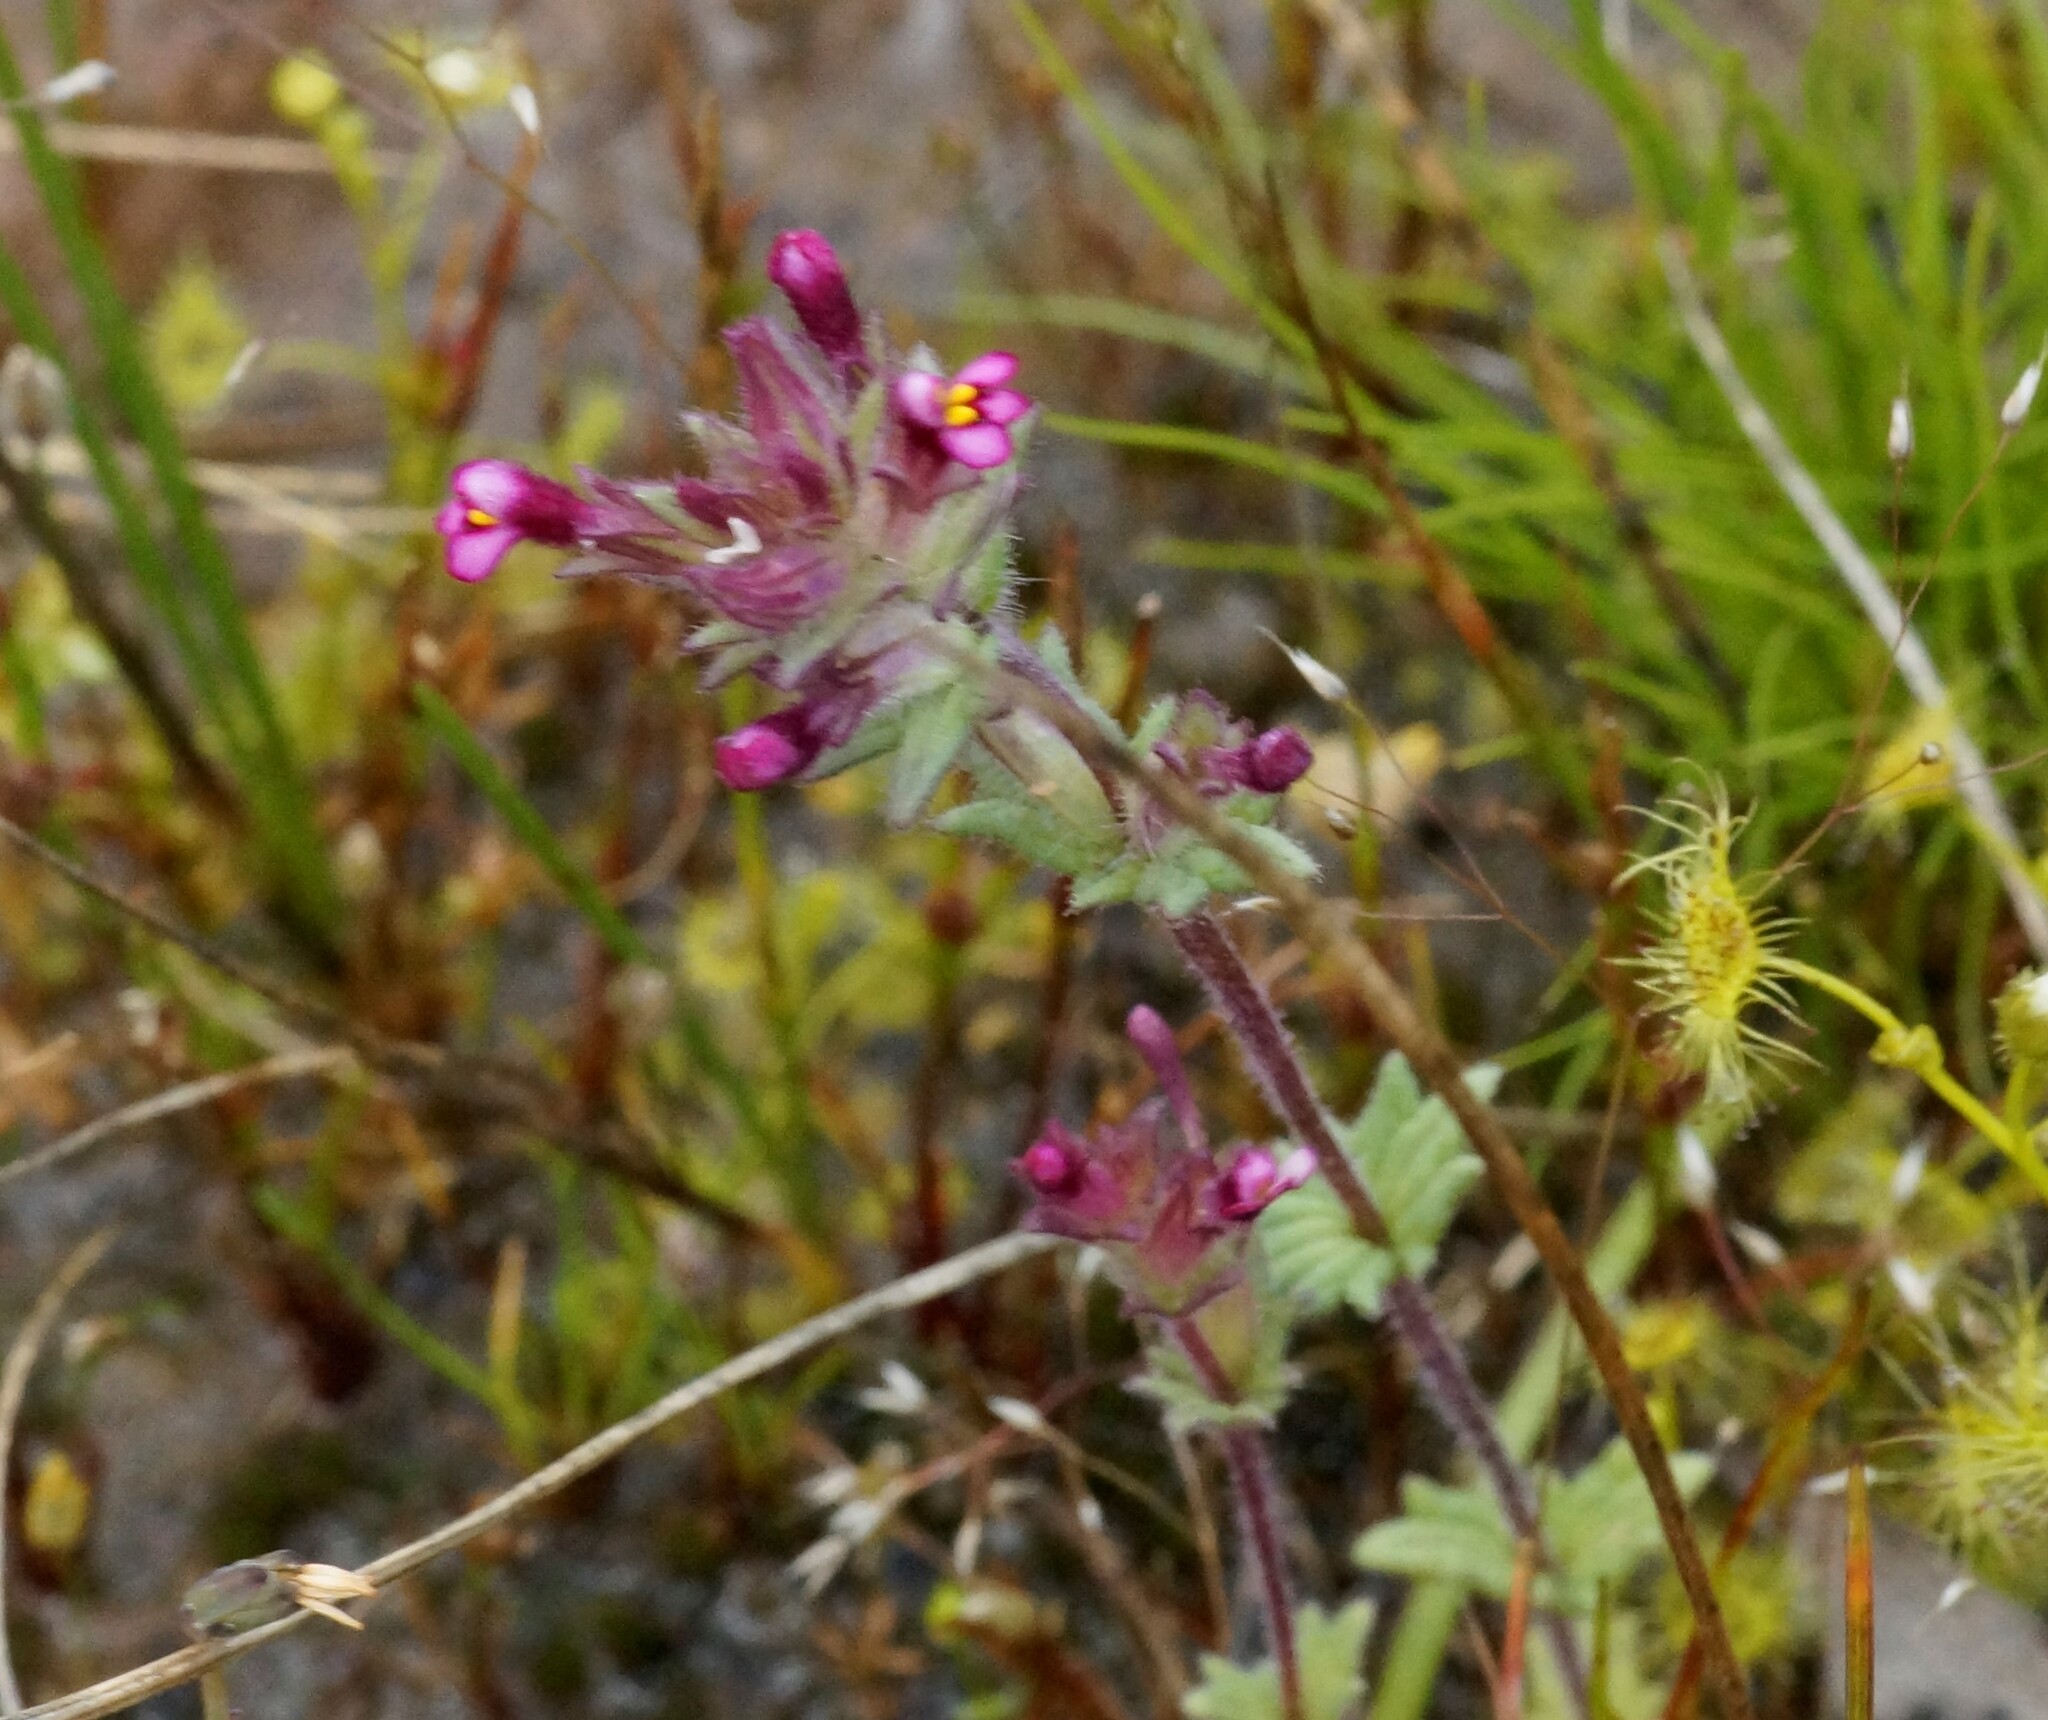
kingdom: Plantae
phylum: Tracheophyta
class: Magnoliopsida
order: Lamiales
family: Orobanchaceae
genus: Parentucellia
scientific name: Parentucellia latifolia
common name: Broadleaf glandweed
